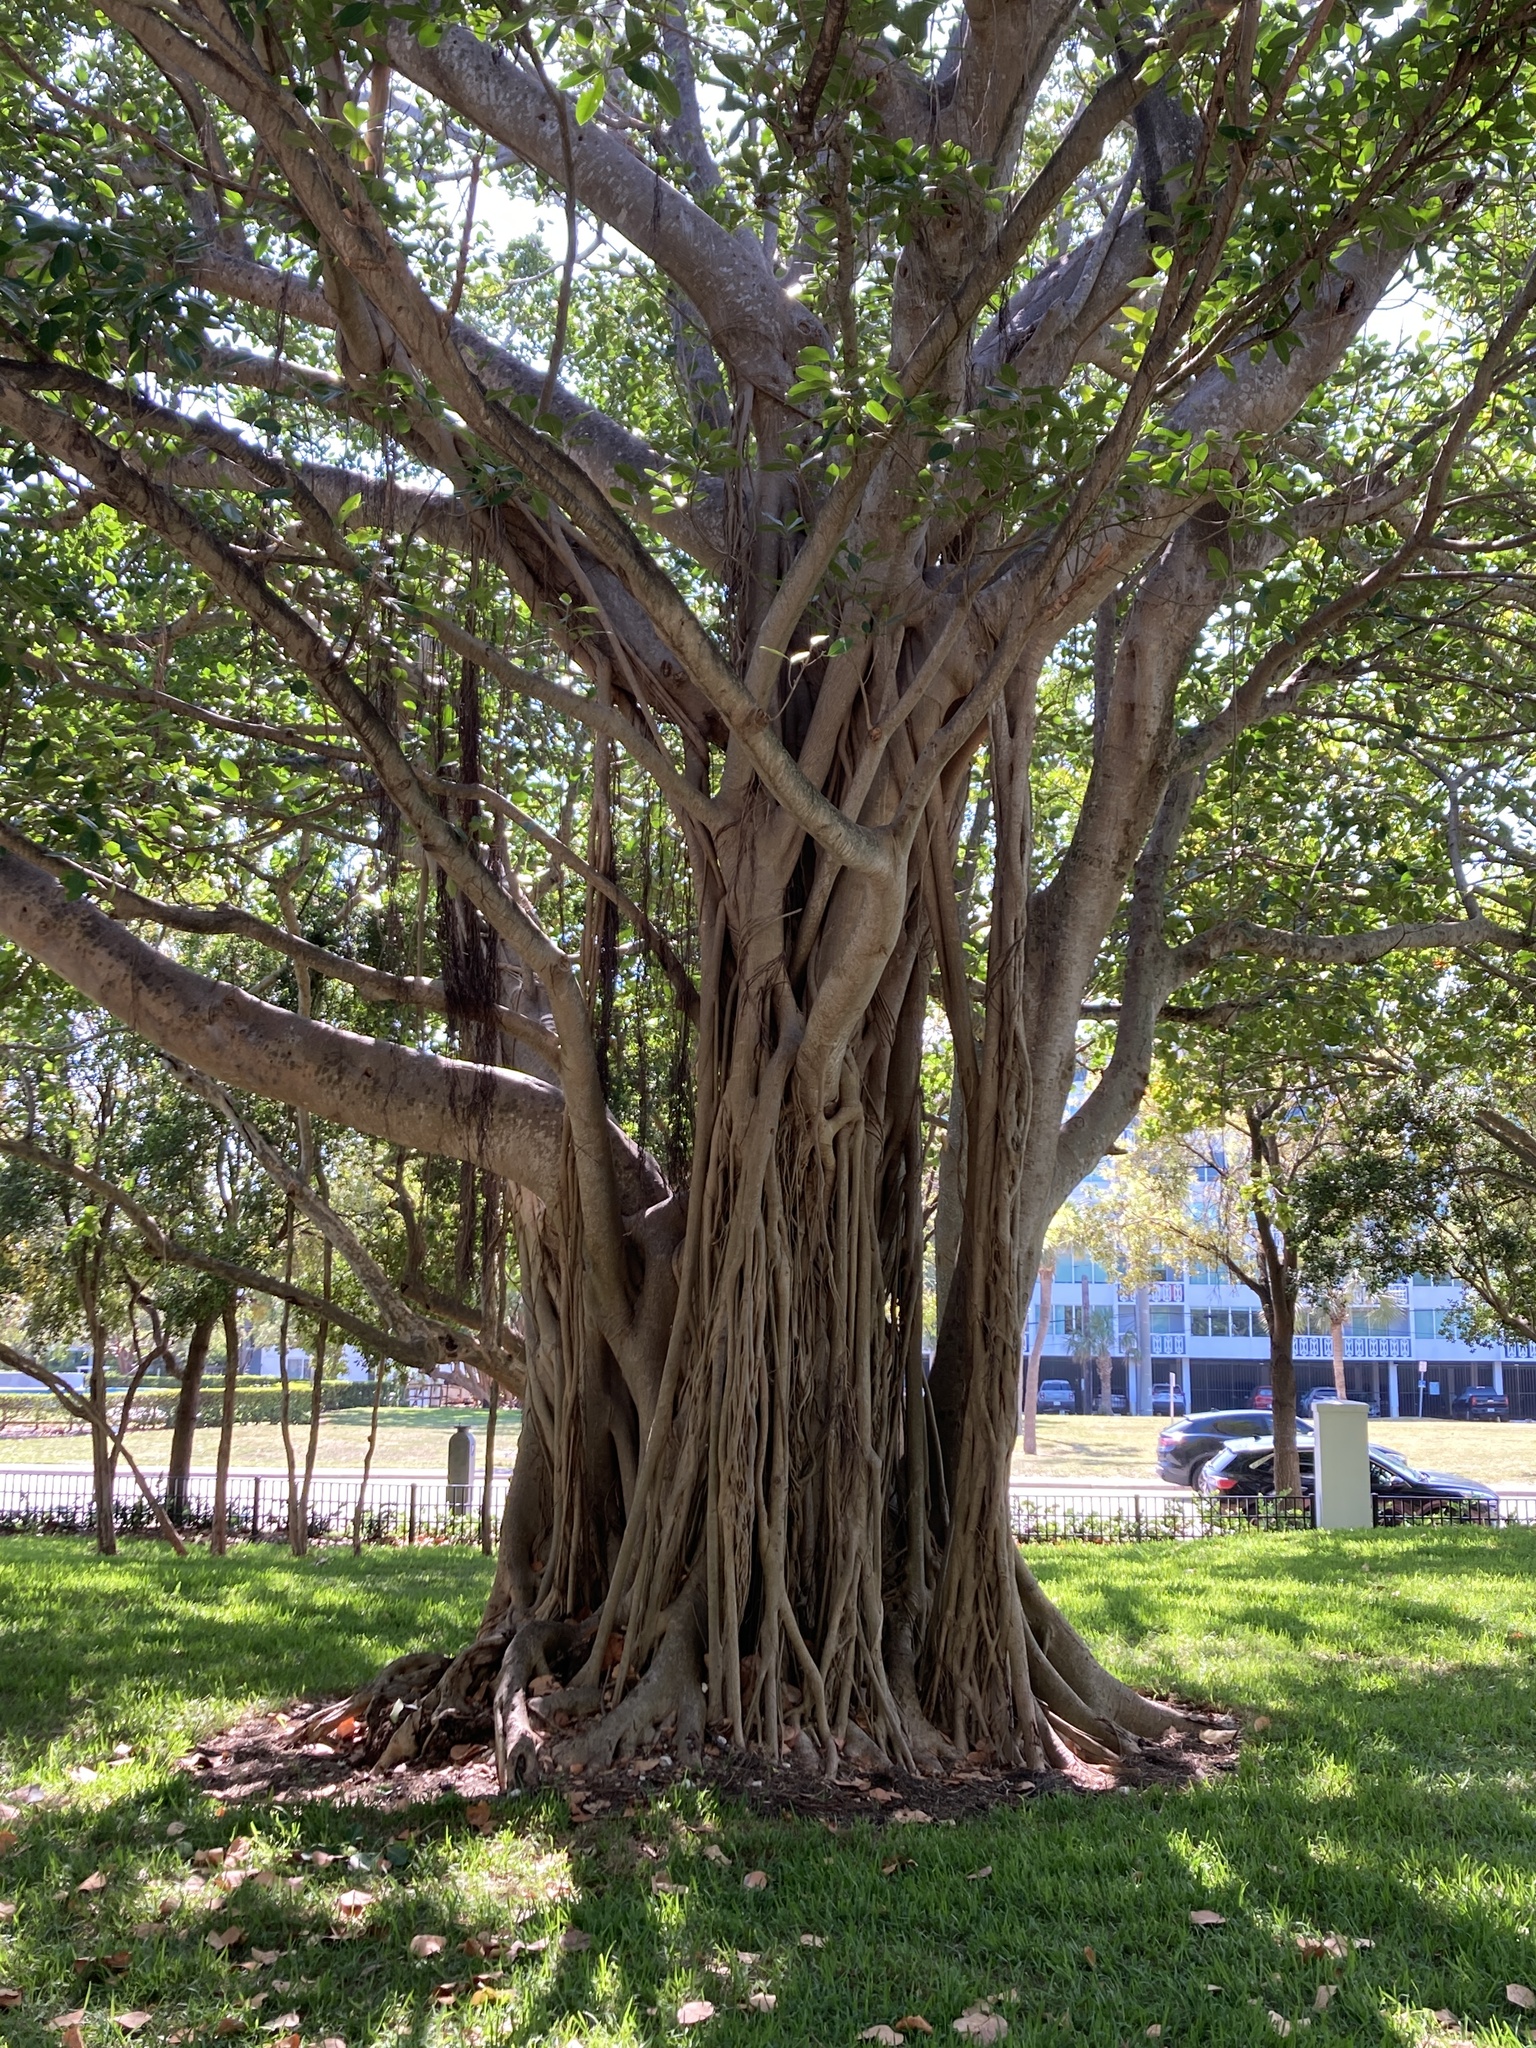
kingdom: Plantae
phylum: Tracheophyta
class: Magnoliopsida
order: Rosales
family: Moraceae
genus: Ficus
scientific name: Ficus aurea
